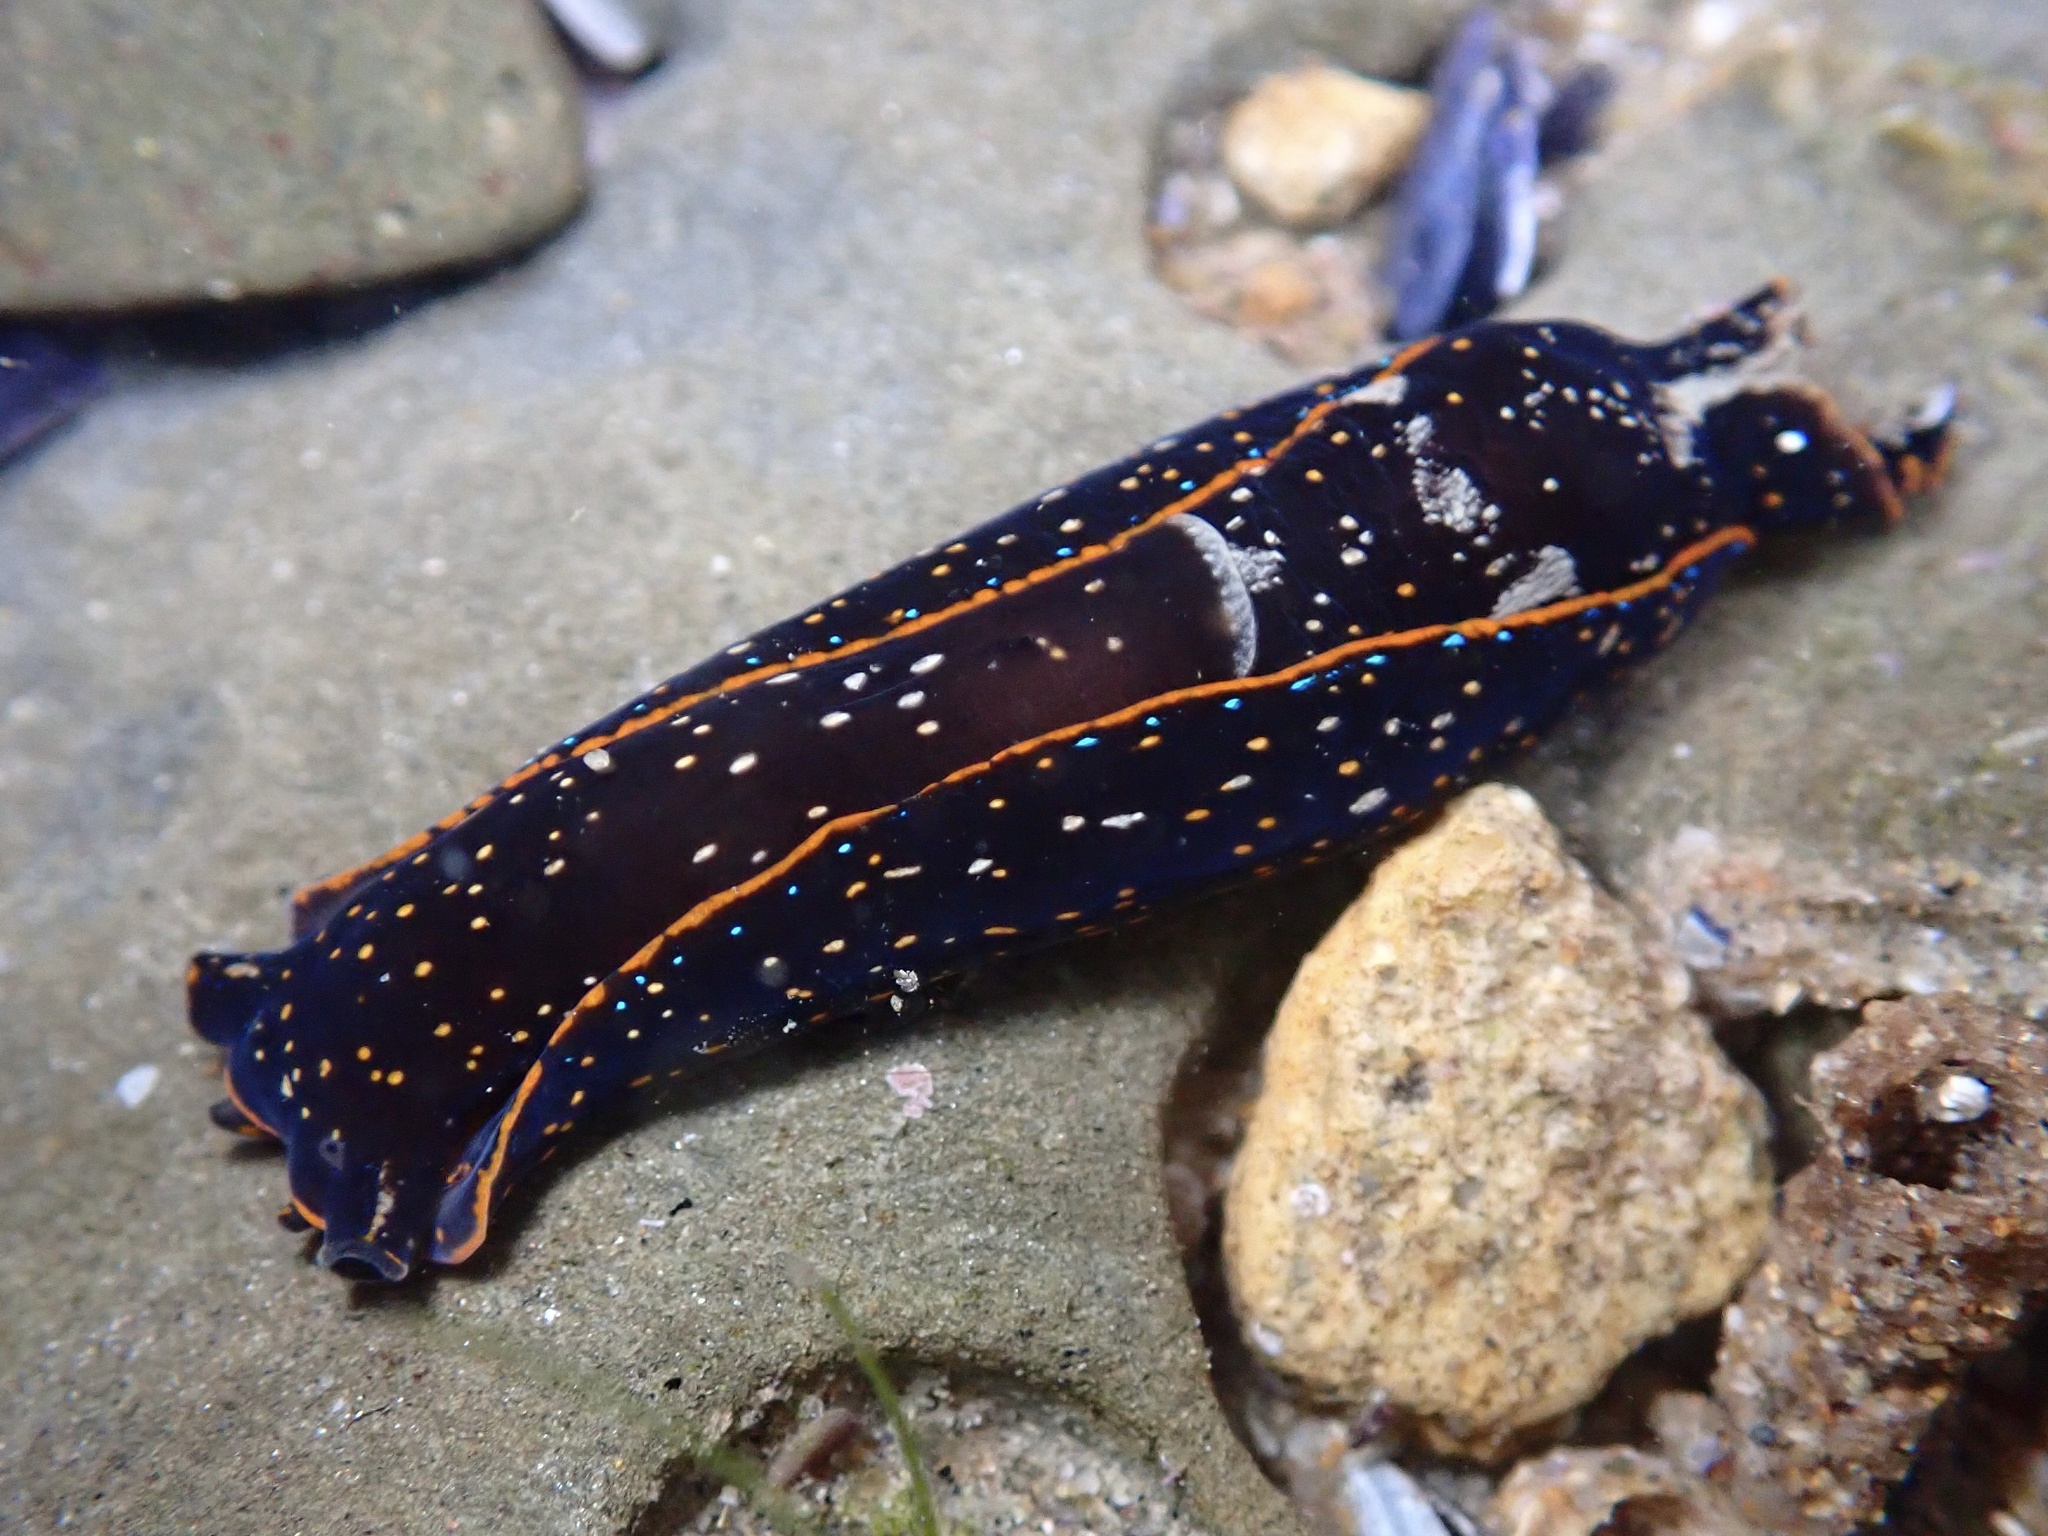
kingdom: Animalia
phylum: Mollusca
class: Gastropoda
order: Cephalaspidea
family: Aglajidae
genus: Navanax
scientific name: Navanax inermis
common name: California aglaja
